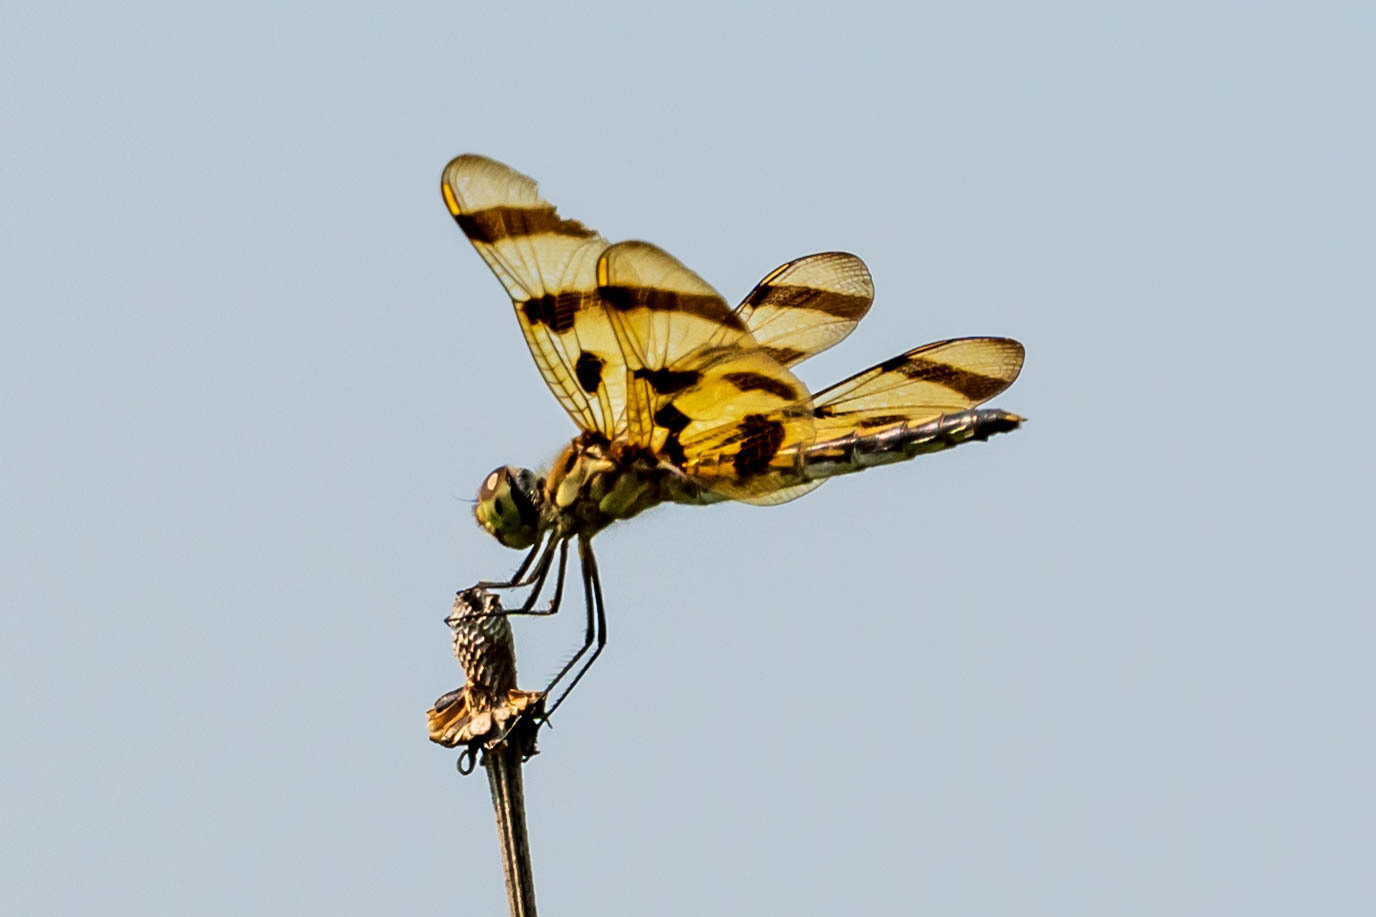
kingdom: Animalia
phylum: Arthropoda
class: Insecta
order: Odonata
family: Libellulidae
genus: Celithemis
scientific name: Celithemis eponina
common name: Halloween pennant
